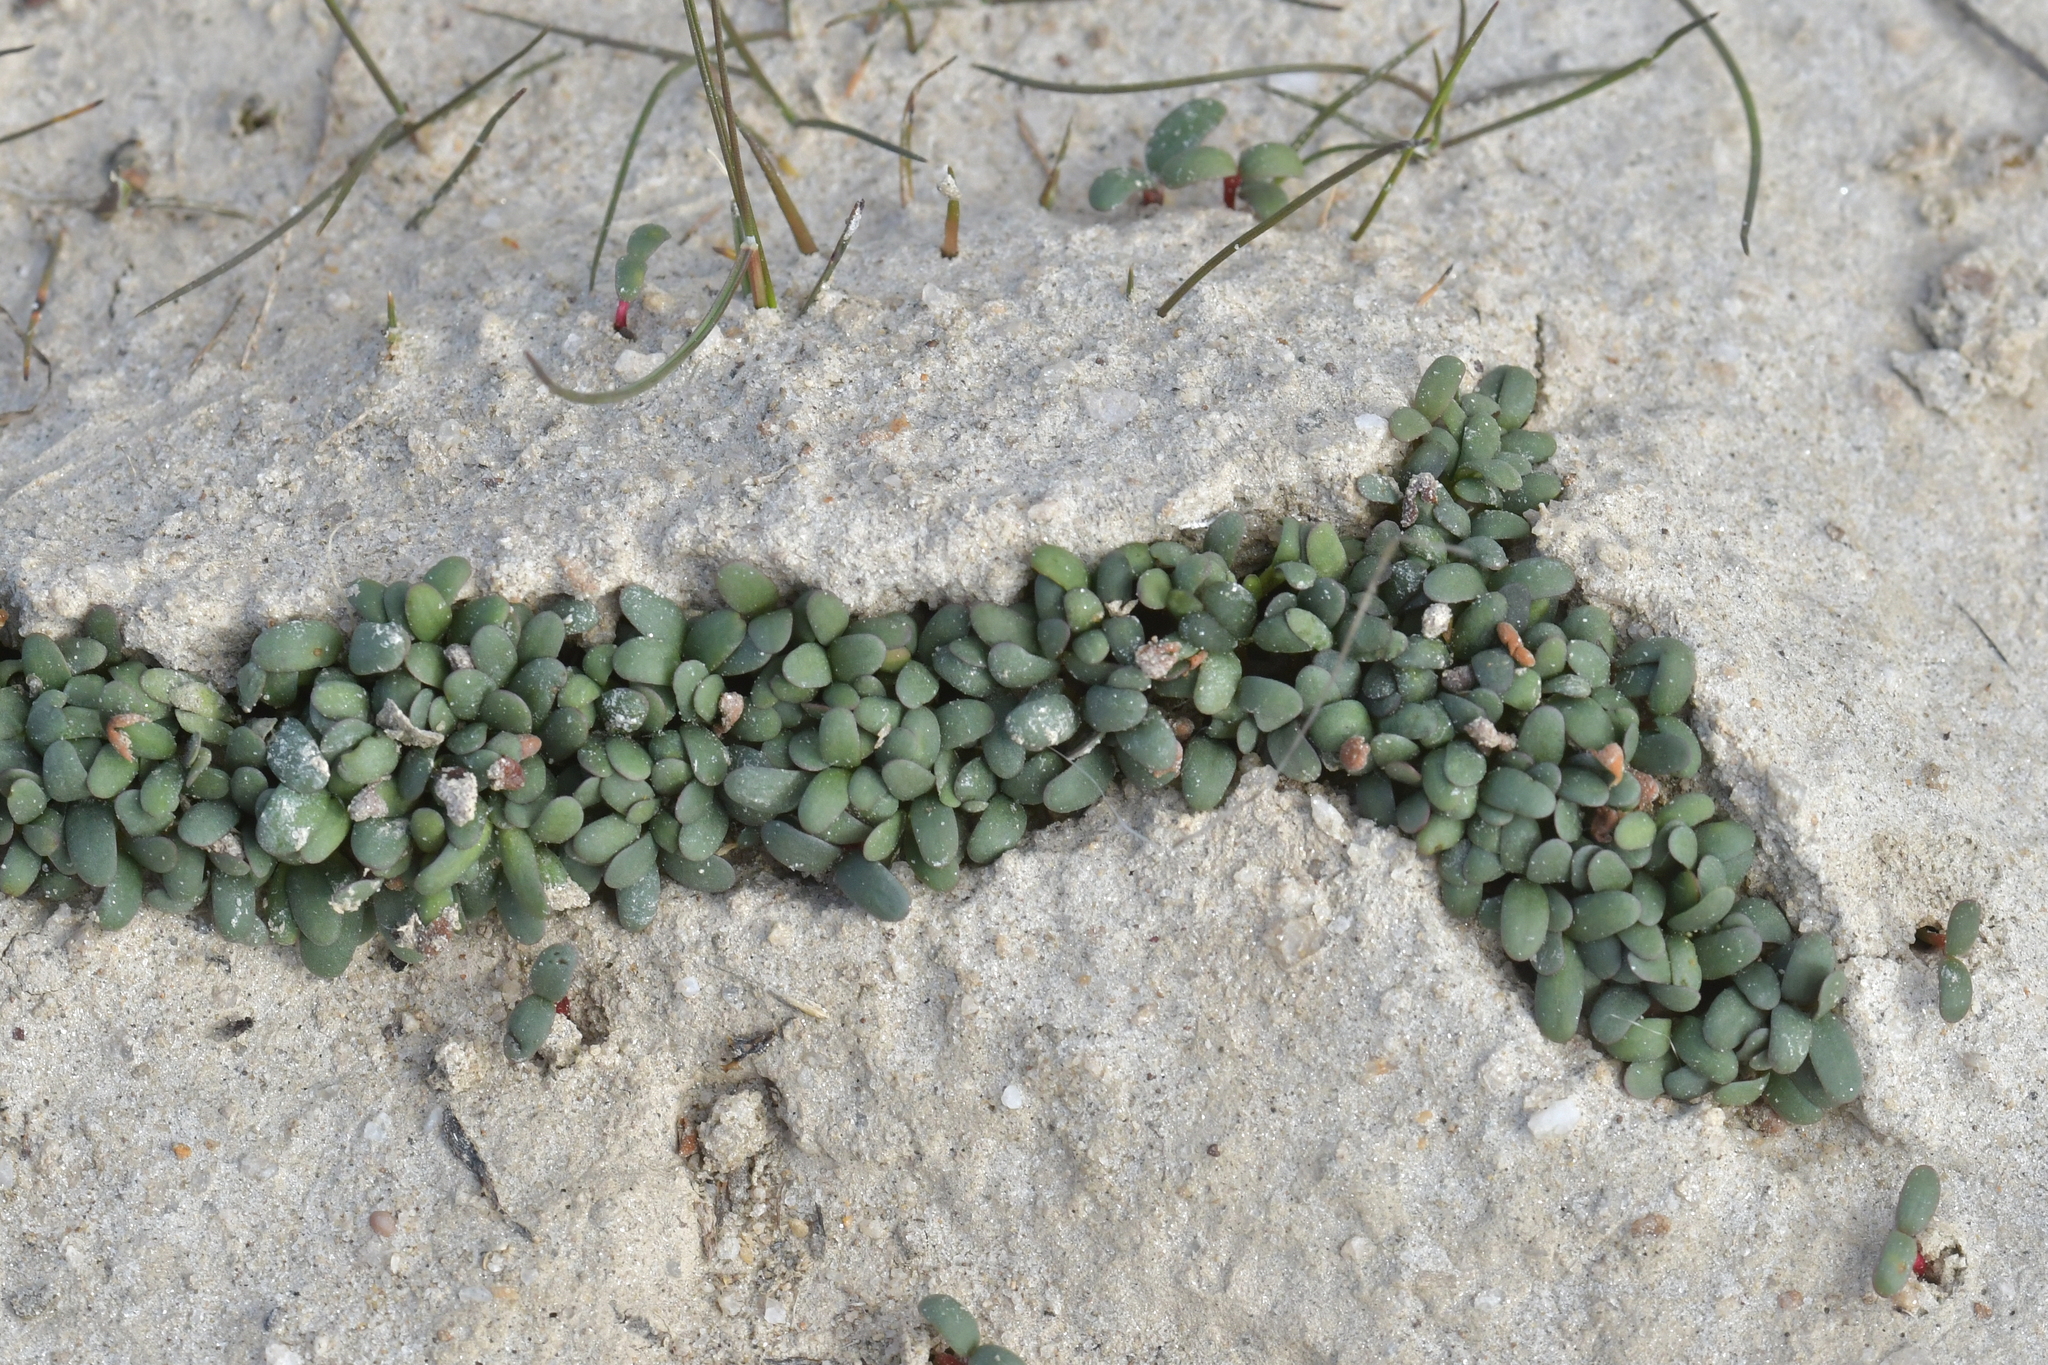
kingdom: Plantae
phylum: Tracheophyta
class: Magnoliopsida
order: Caryophyllales
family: Amaranthaceae
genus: Atriplex
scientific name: Atriplex buchananii
